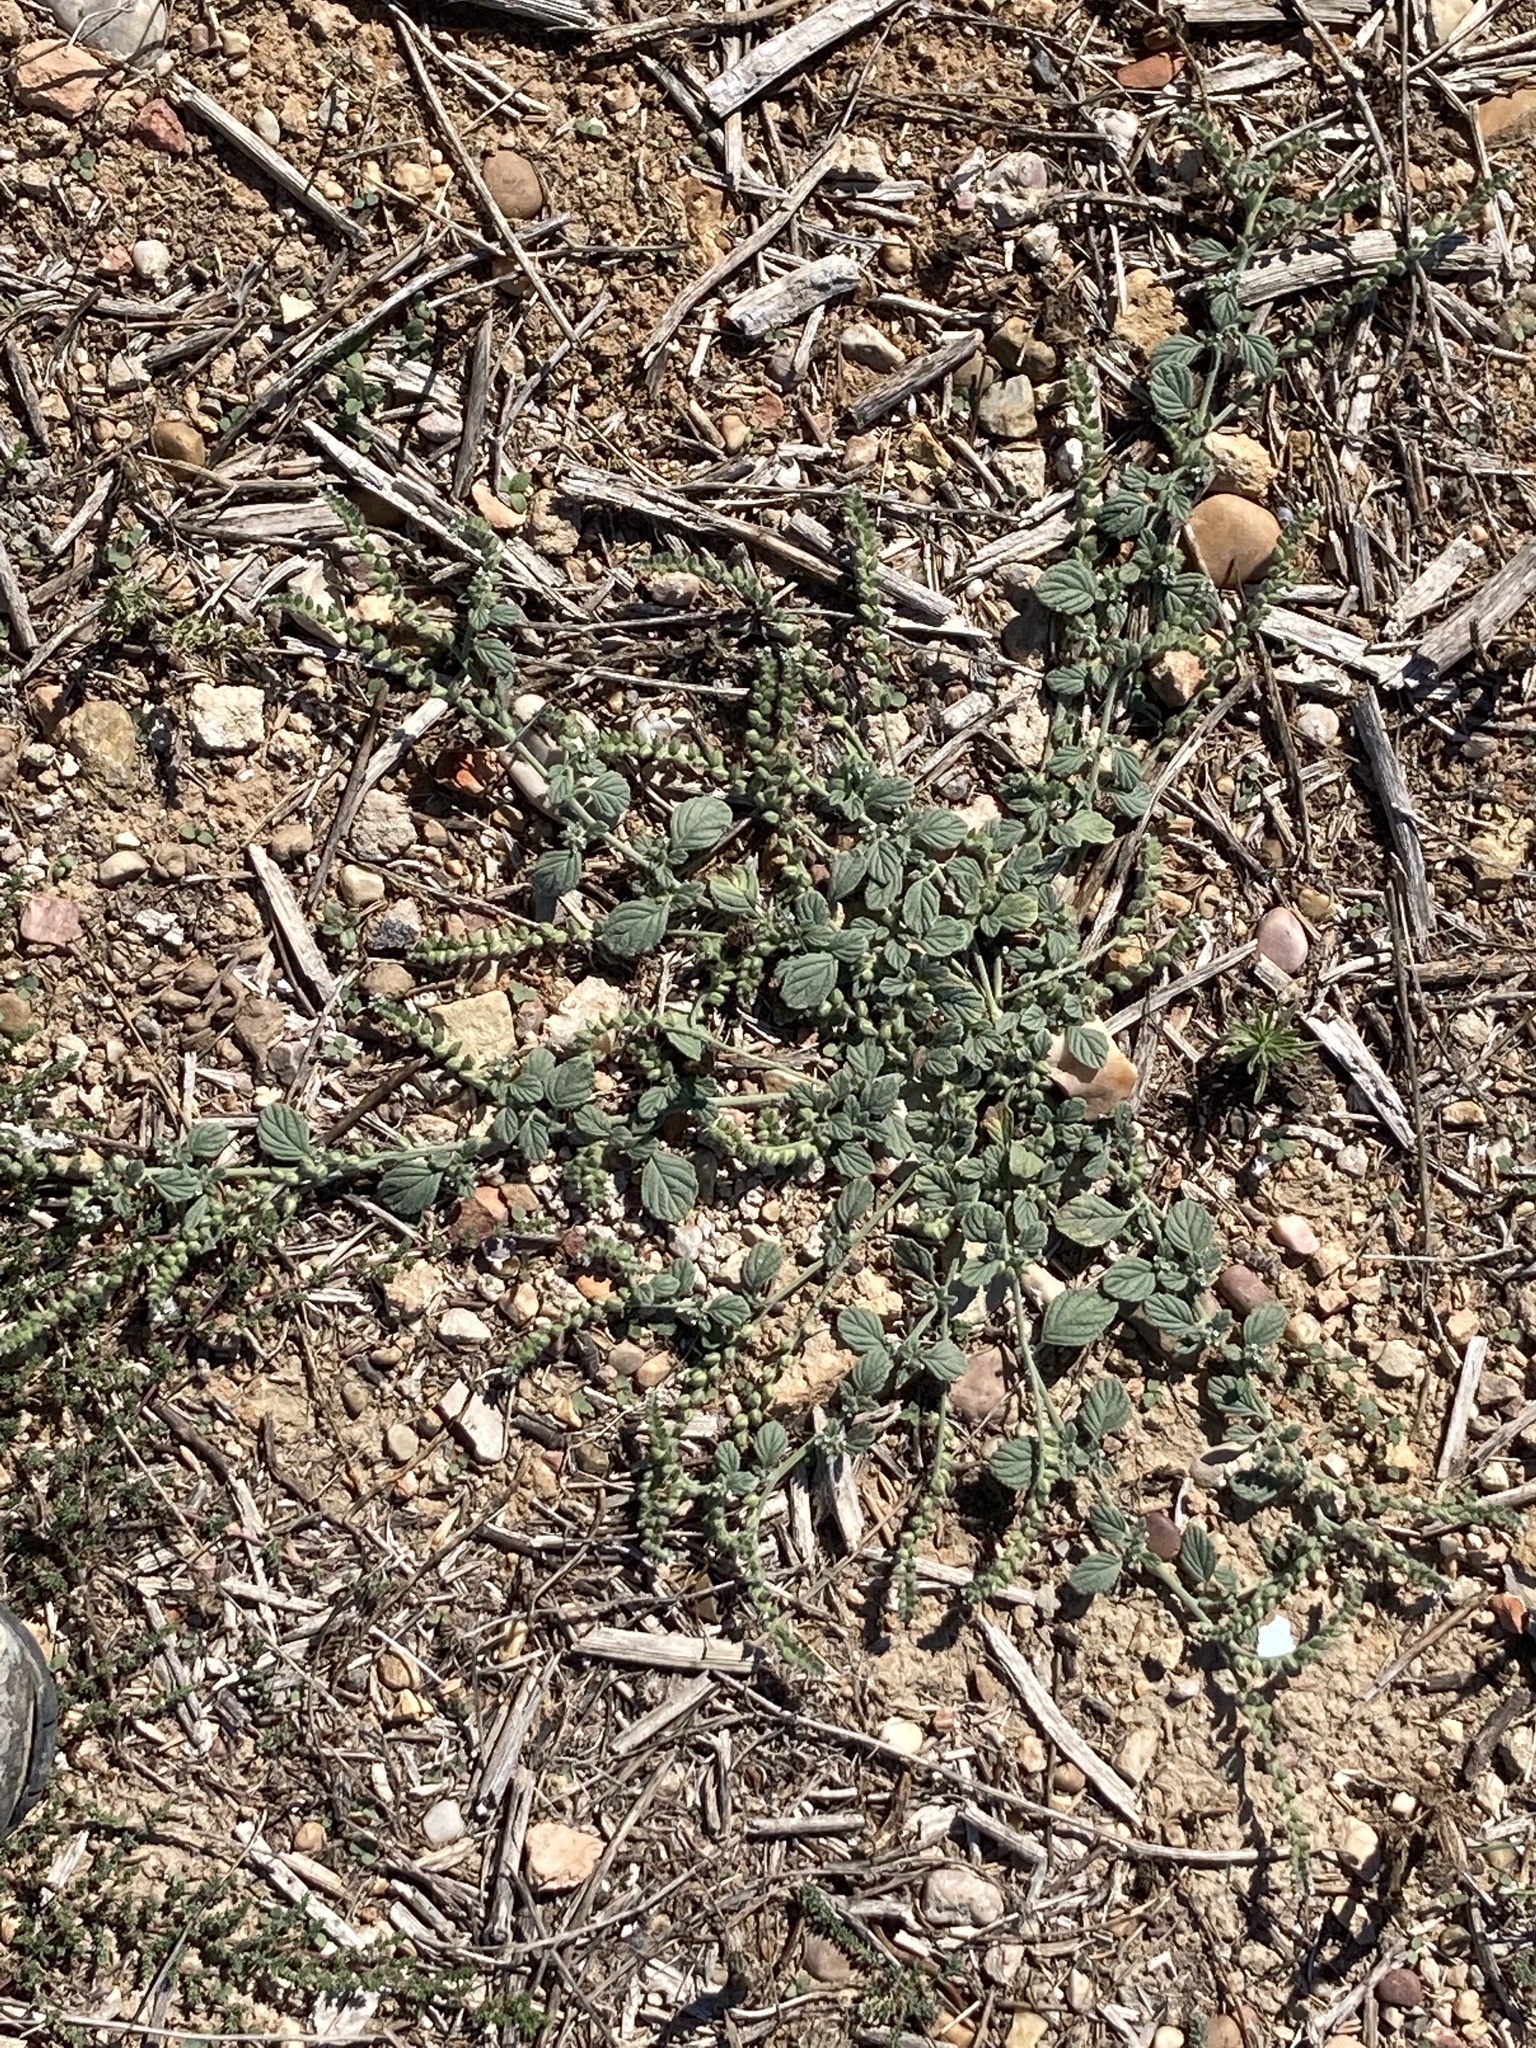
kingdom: Plantae
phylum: Tracheophyta
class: Magnoliopsida
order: Boraginales
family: Heliotropiaceae
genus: Heliotropium
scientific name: Heliotropium supinum
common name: Dwarf heliotrope
